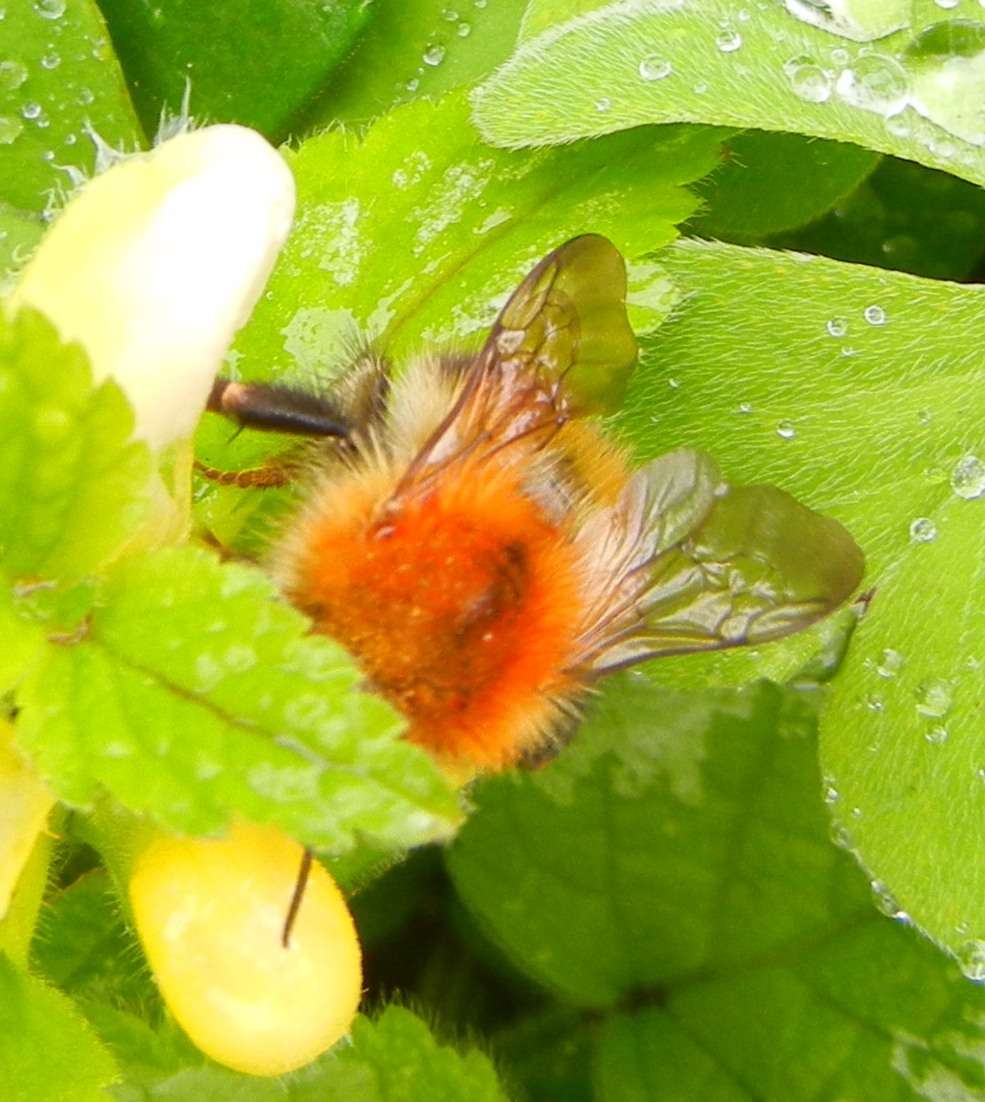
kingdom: Animalia
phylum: Arthropoda
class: Insecta
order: Hymenoptera
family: Apidae
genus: Bombus
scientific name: Bombus pascuorum
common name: Common carder bee
